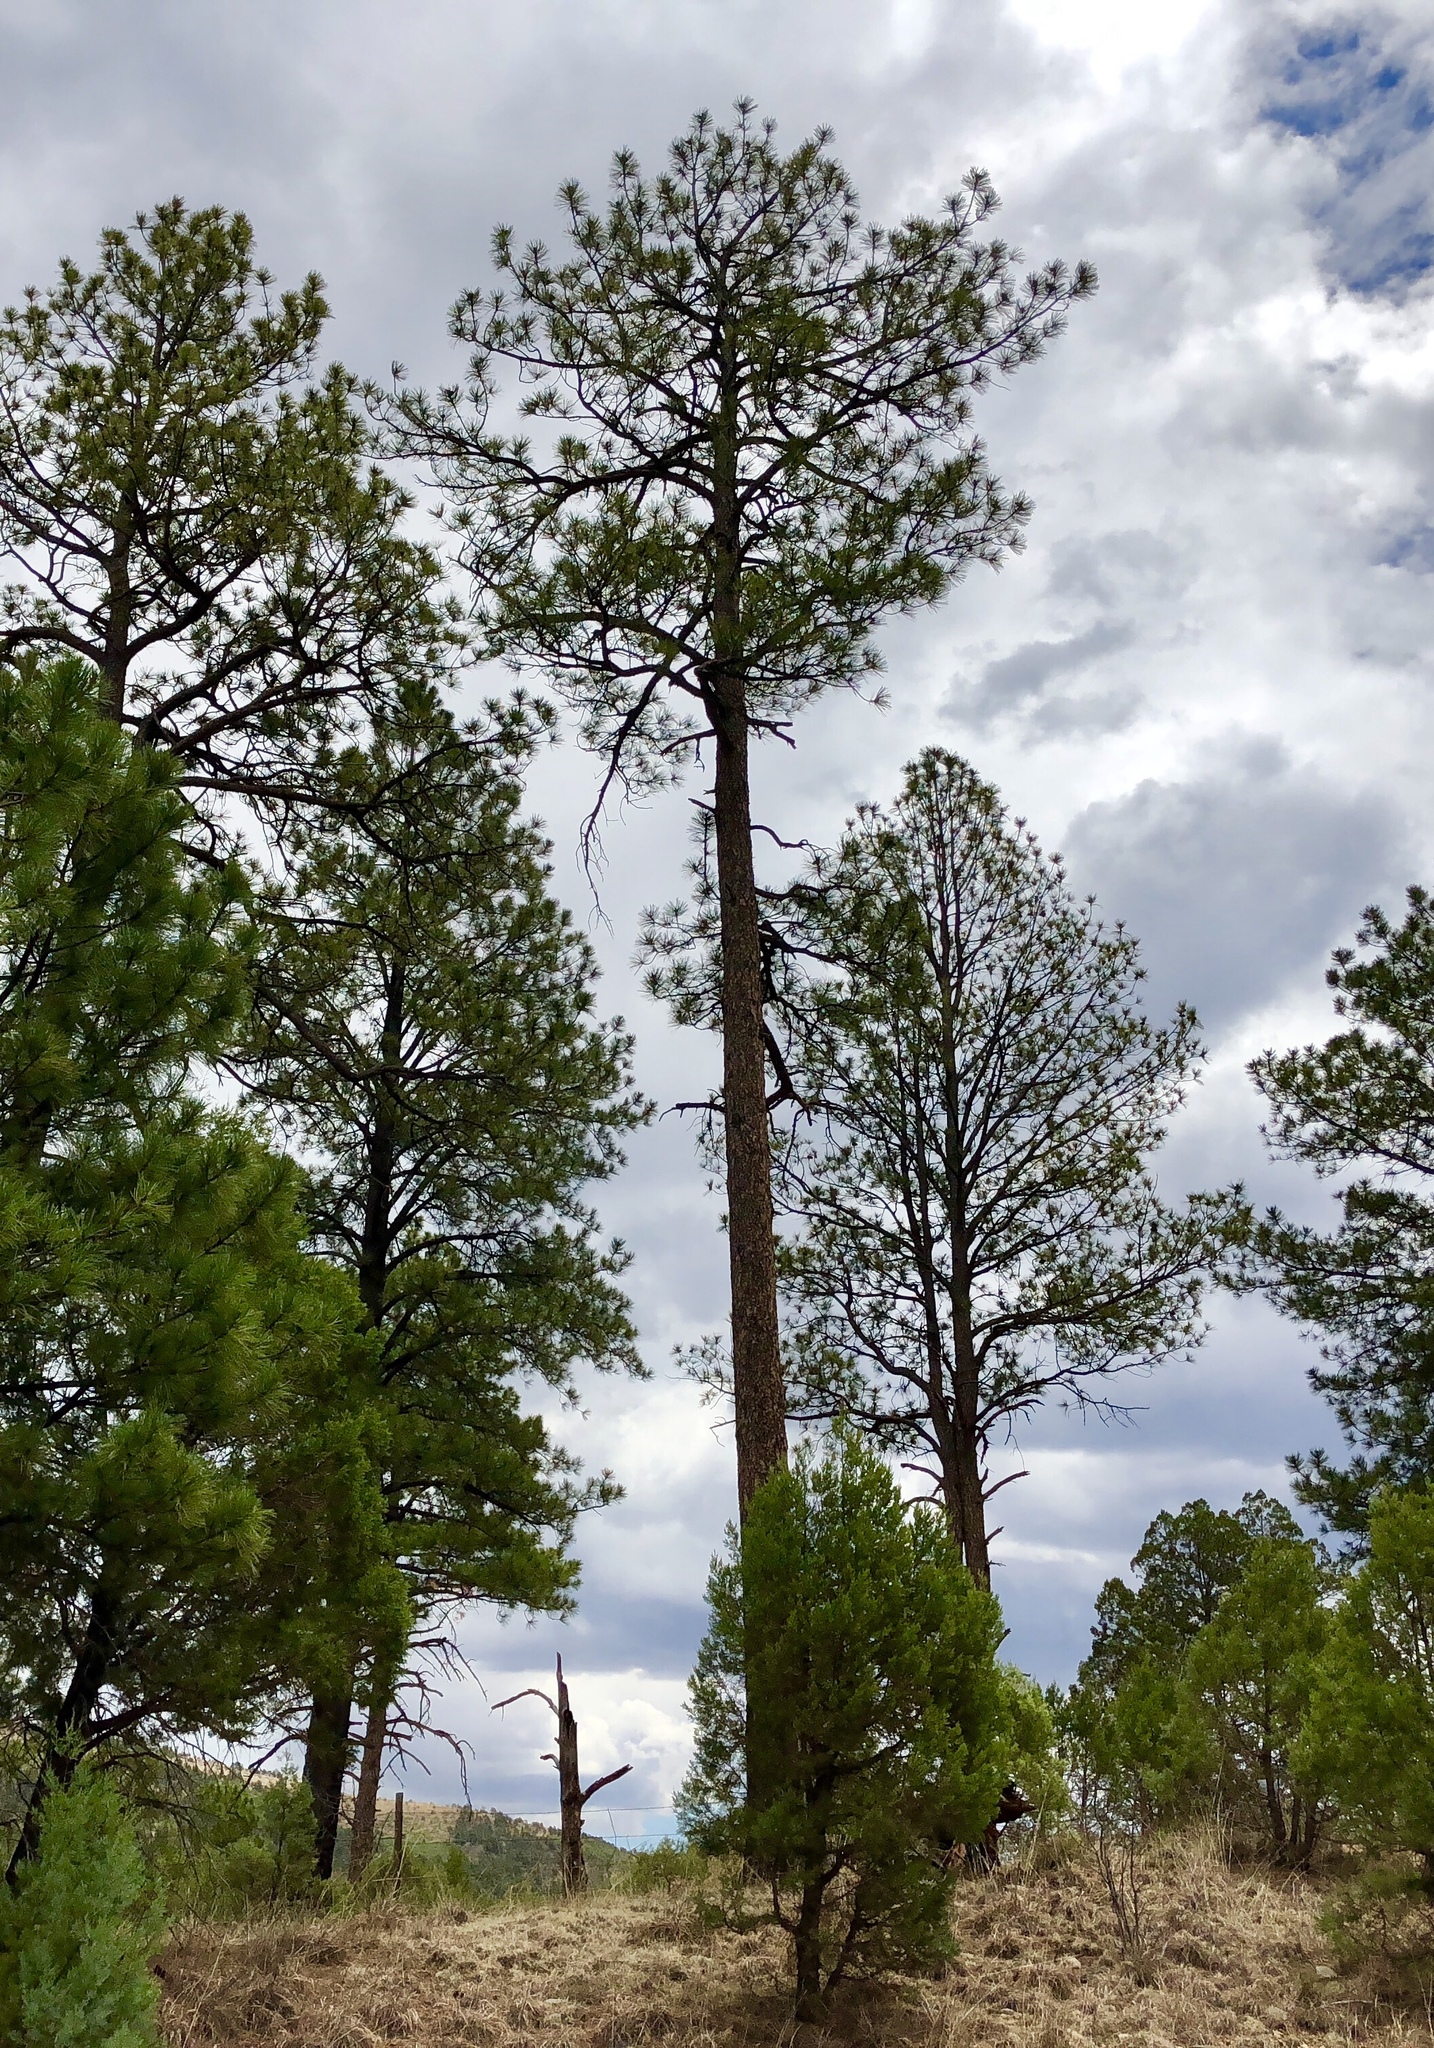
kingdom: Plantae
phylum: Tracheophyta
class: Pinopsida
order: Pinales
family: Pinaceae
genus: Pinus
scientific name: Pinus ponderosa
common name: Western yellow-pine
